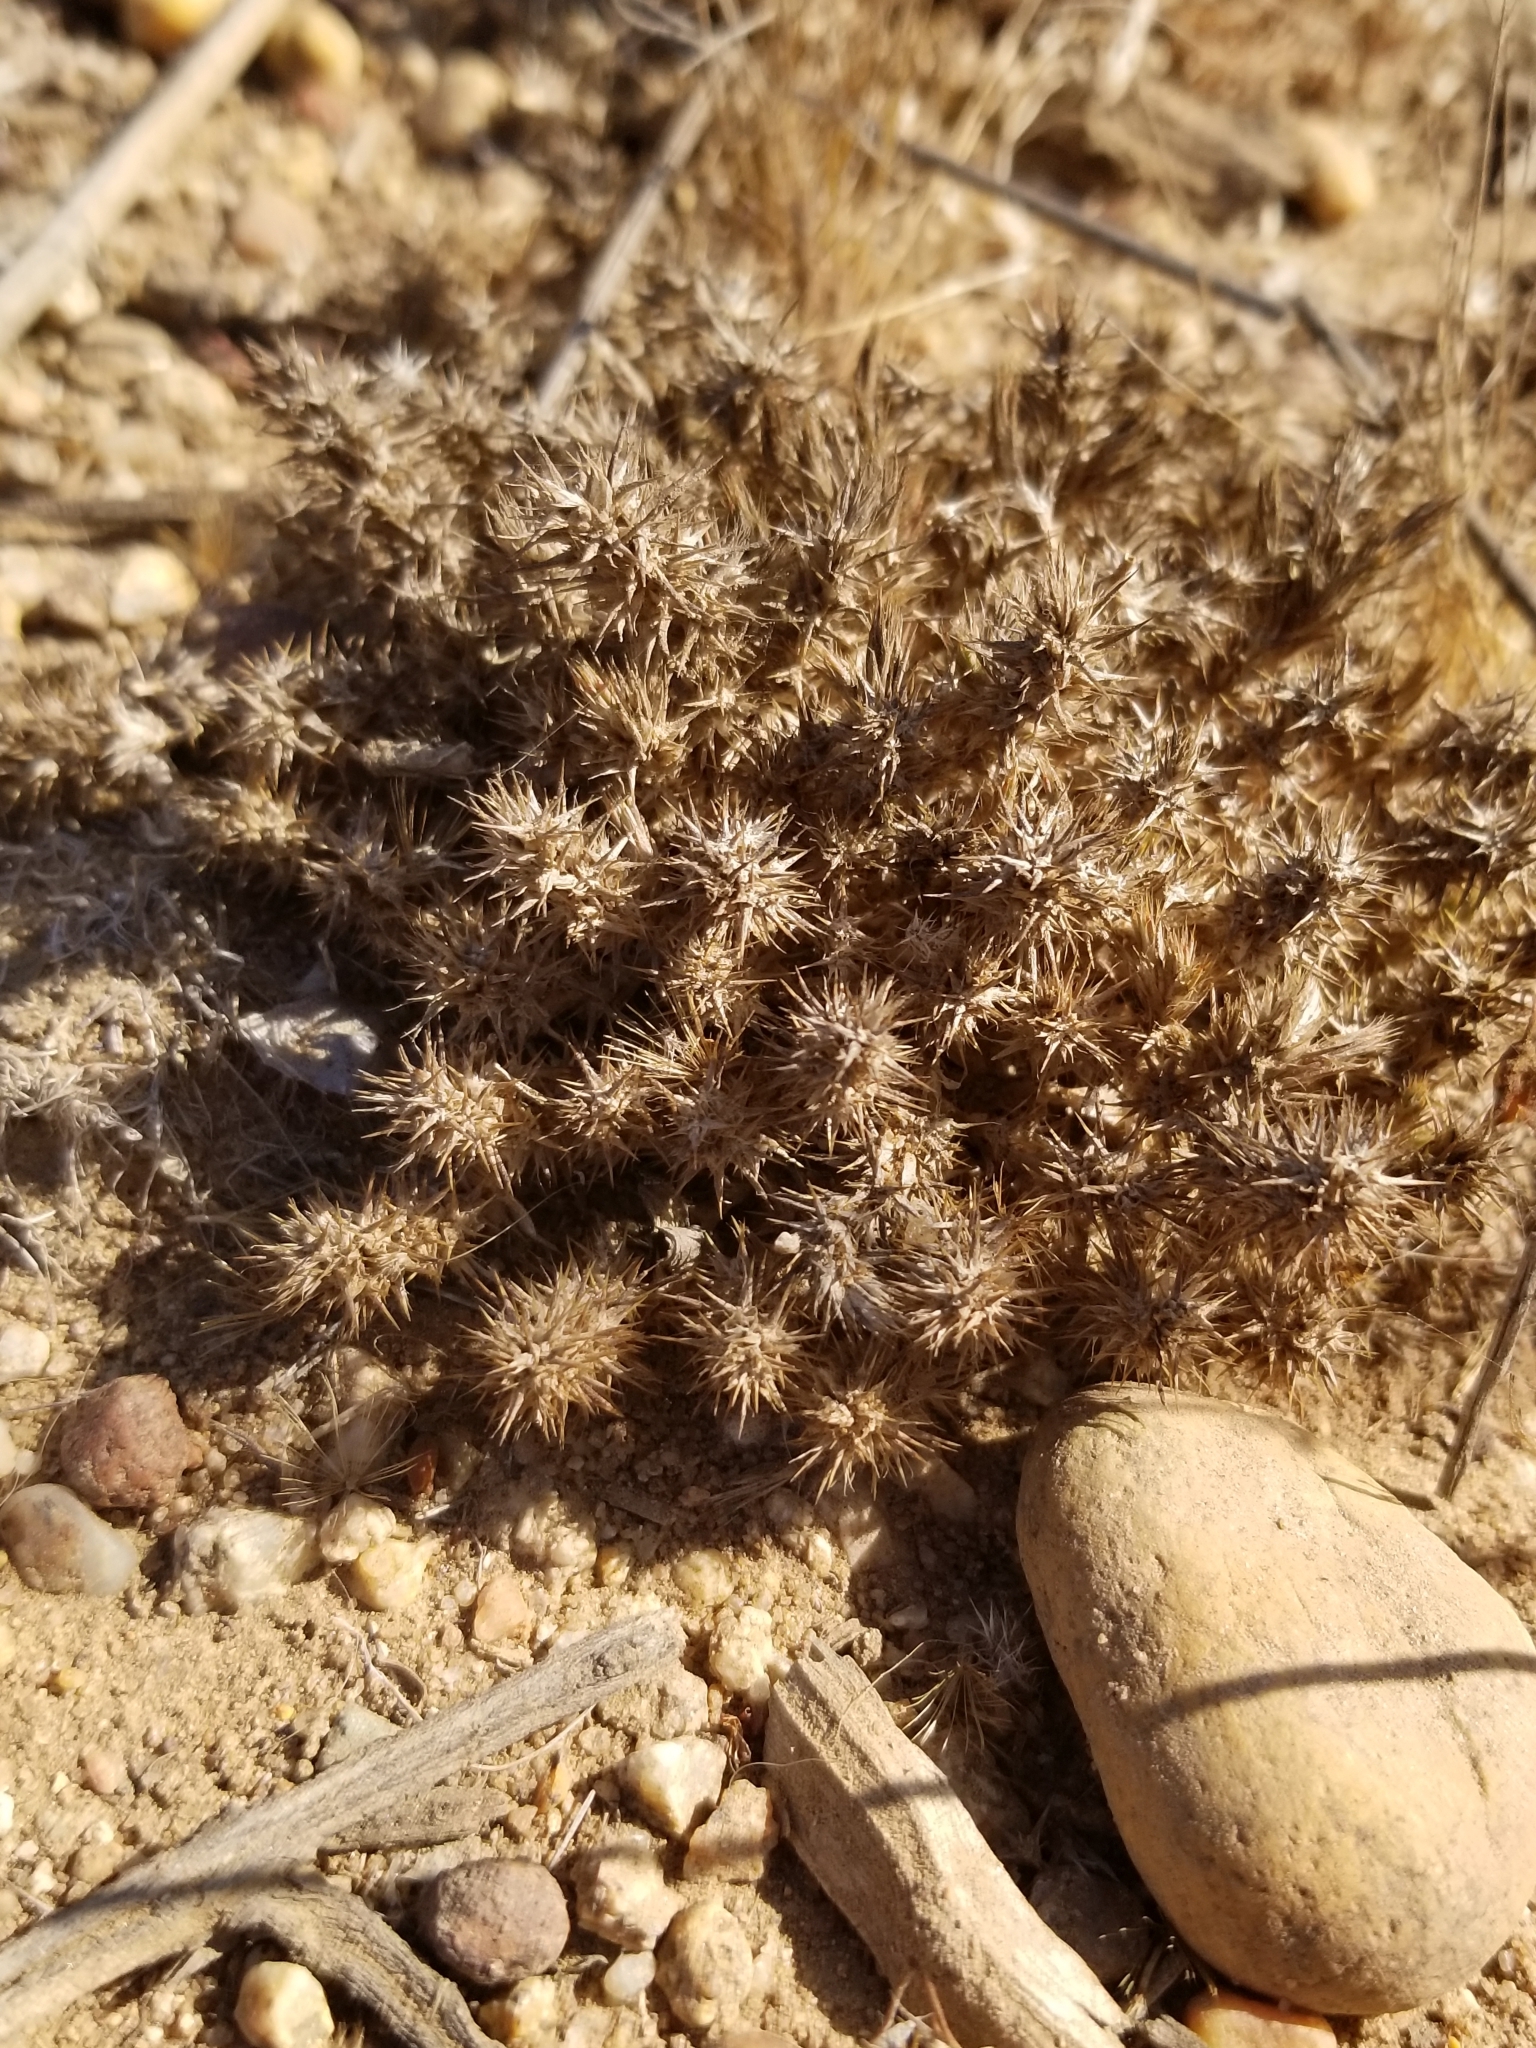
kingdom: Plantae
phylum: Tracheophyta
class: Magnoliopsida
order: Caryophyllales
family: Caryophyllaceae
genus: Cardionema
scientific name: Cardionema ramosissima
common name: Sandcarpet
